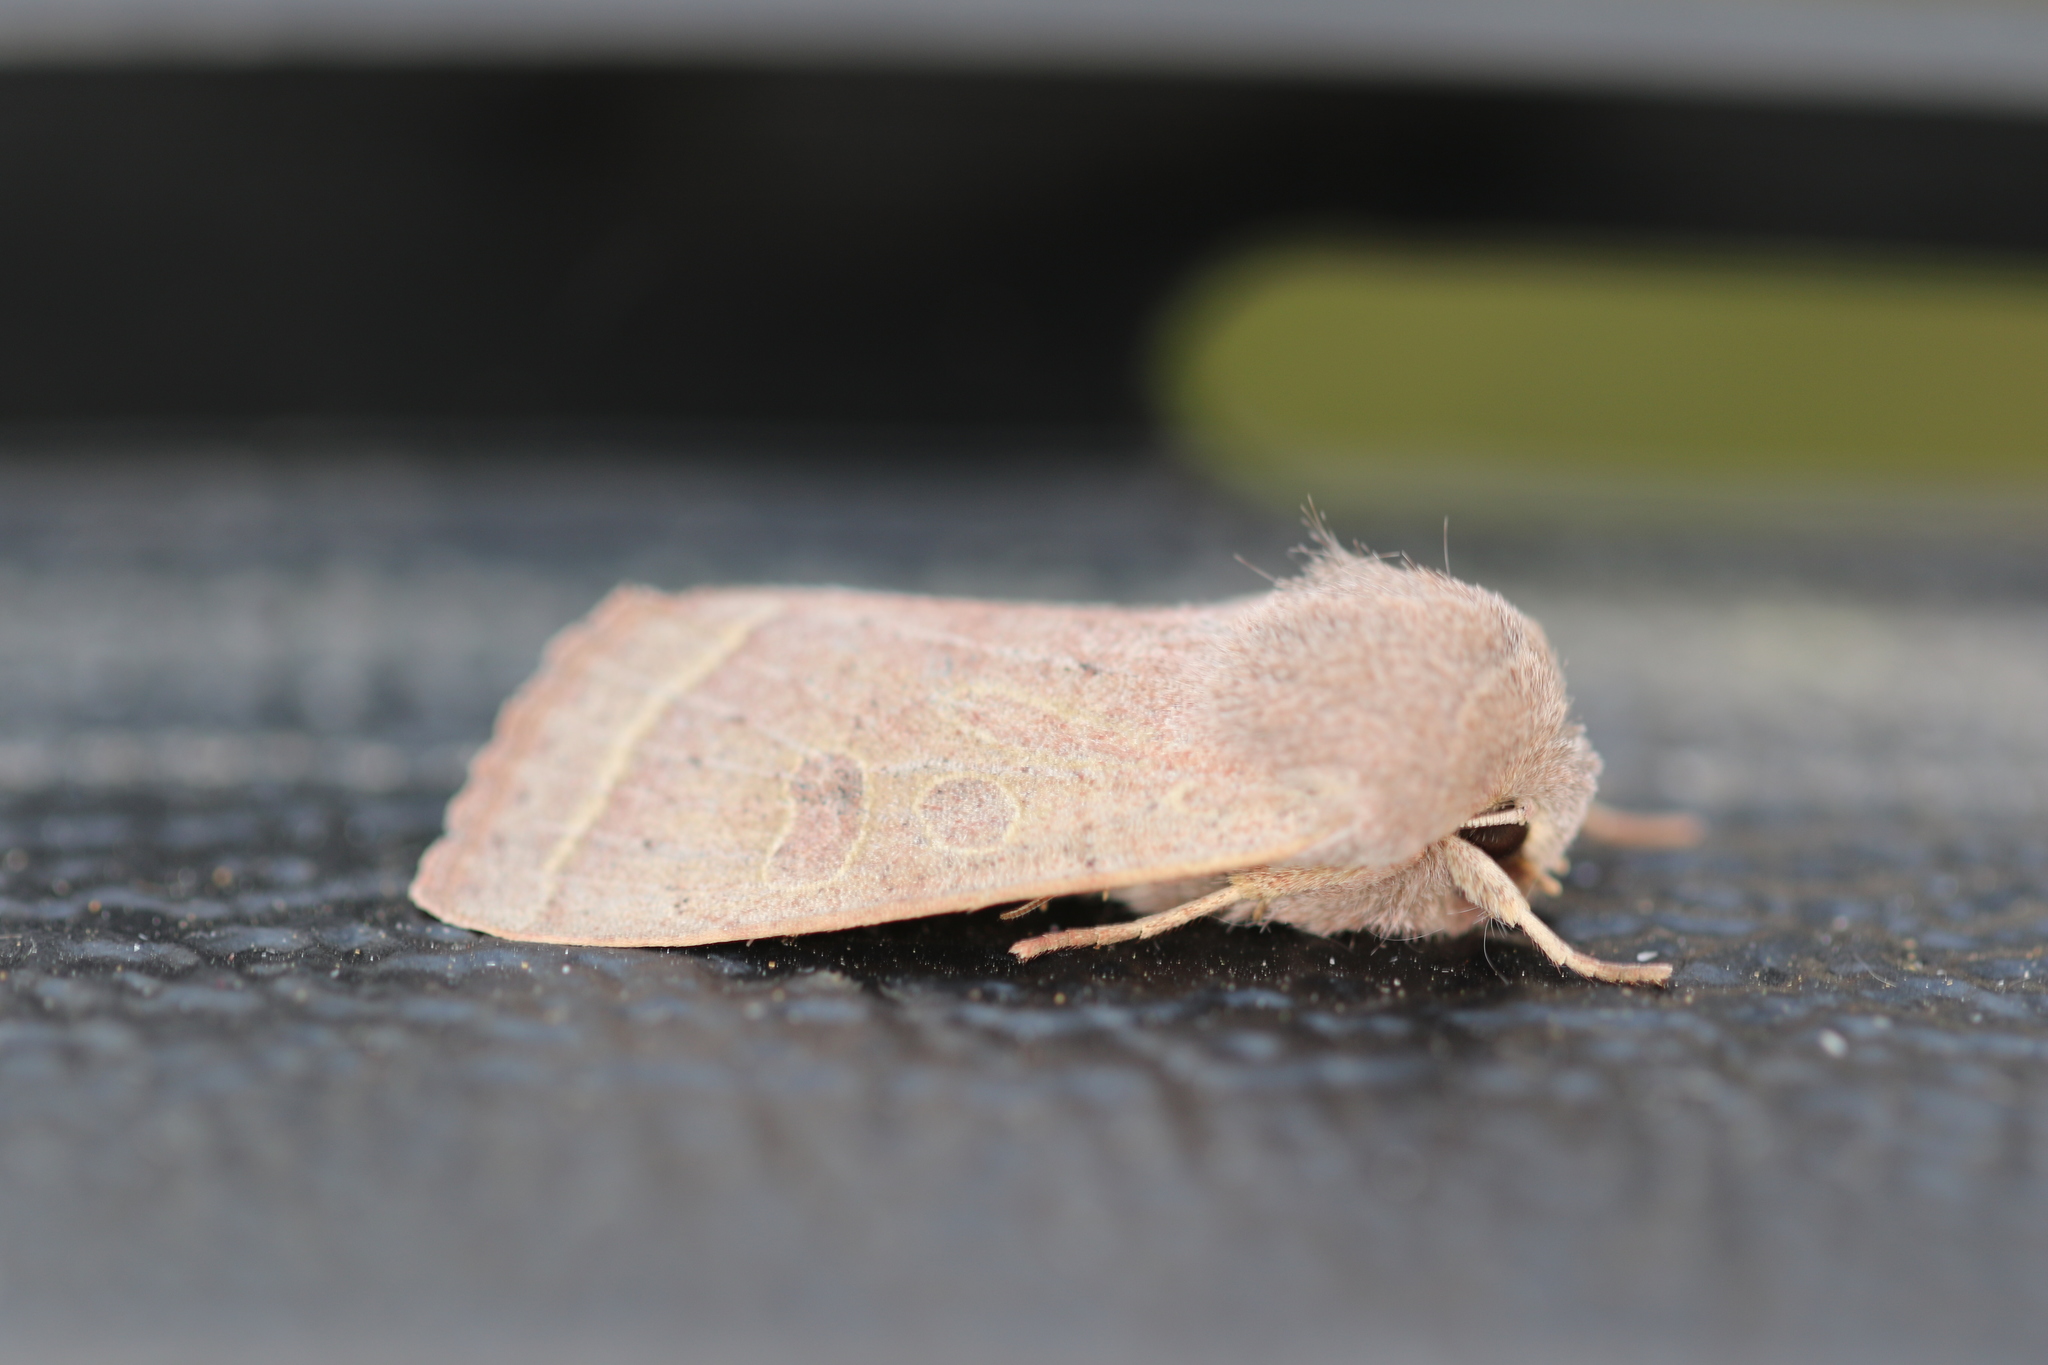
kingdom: Animalia
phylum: Arthropoda
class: Insecta
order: Lepidoptera
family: Noctuidae
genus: Orthosia
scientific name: Orthosia cerasi
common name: Common quaker
